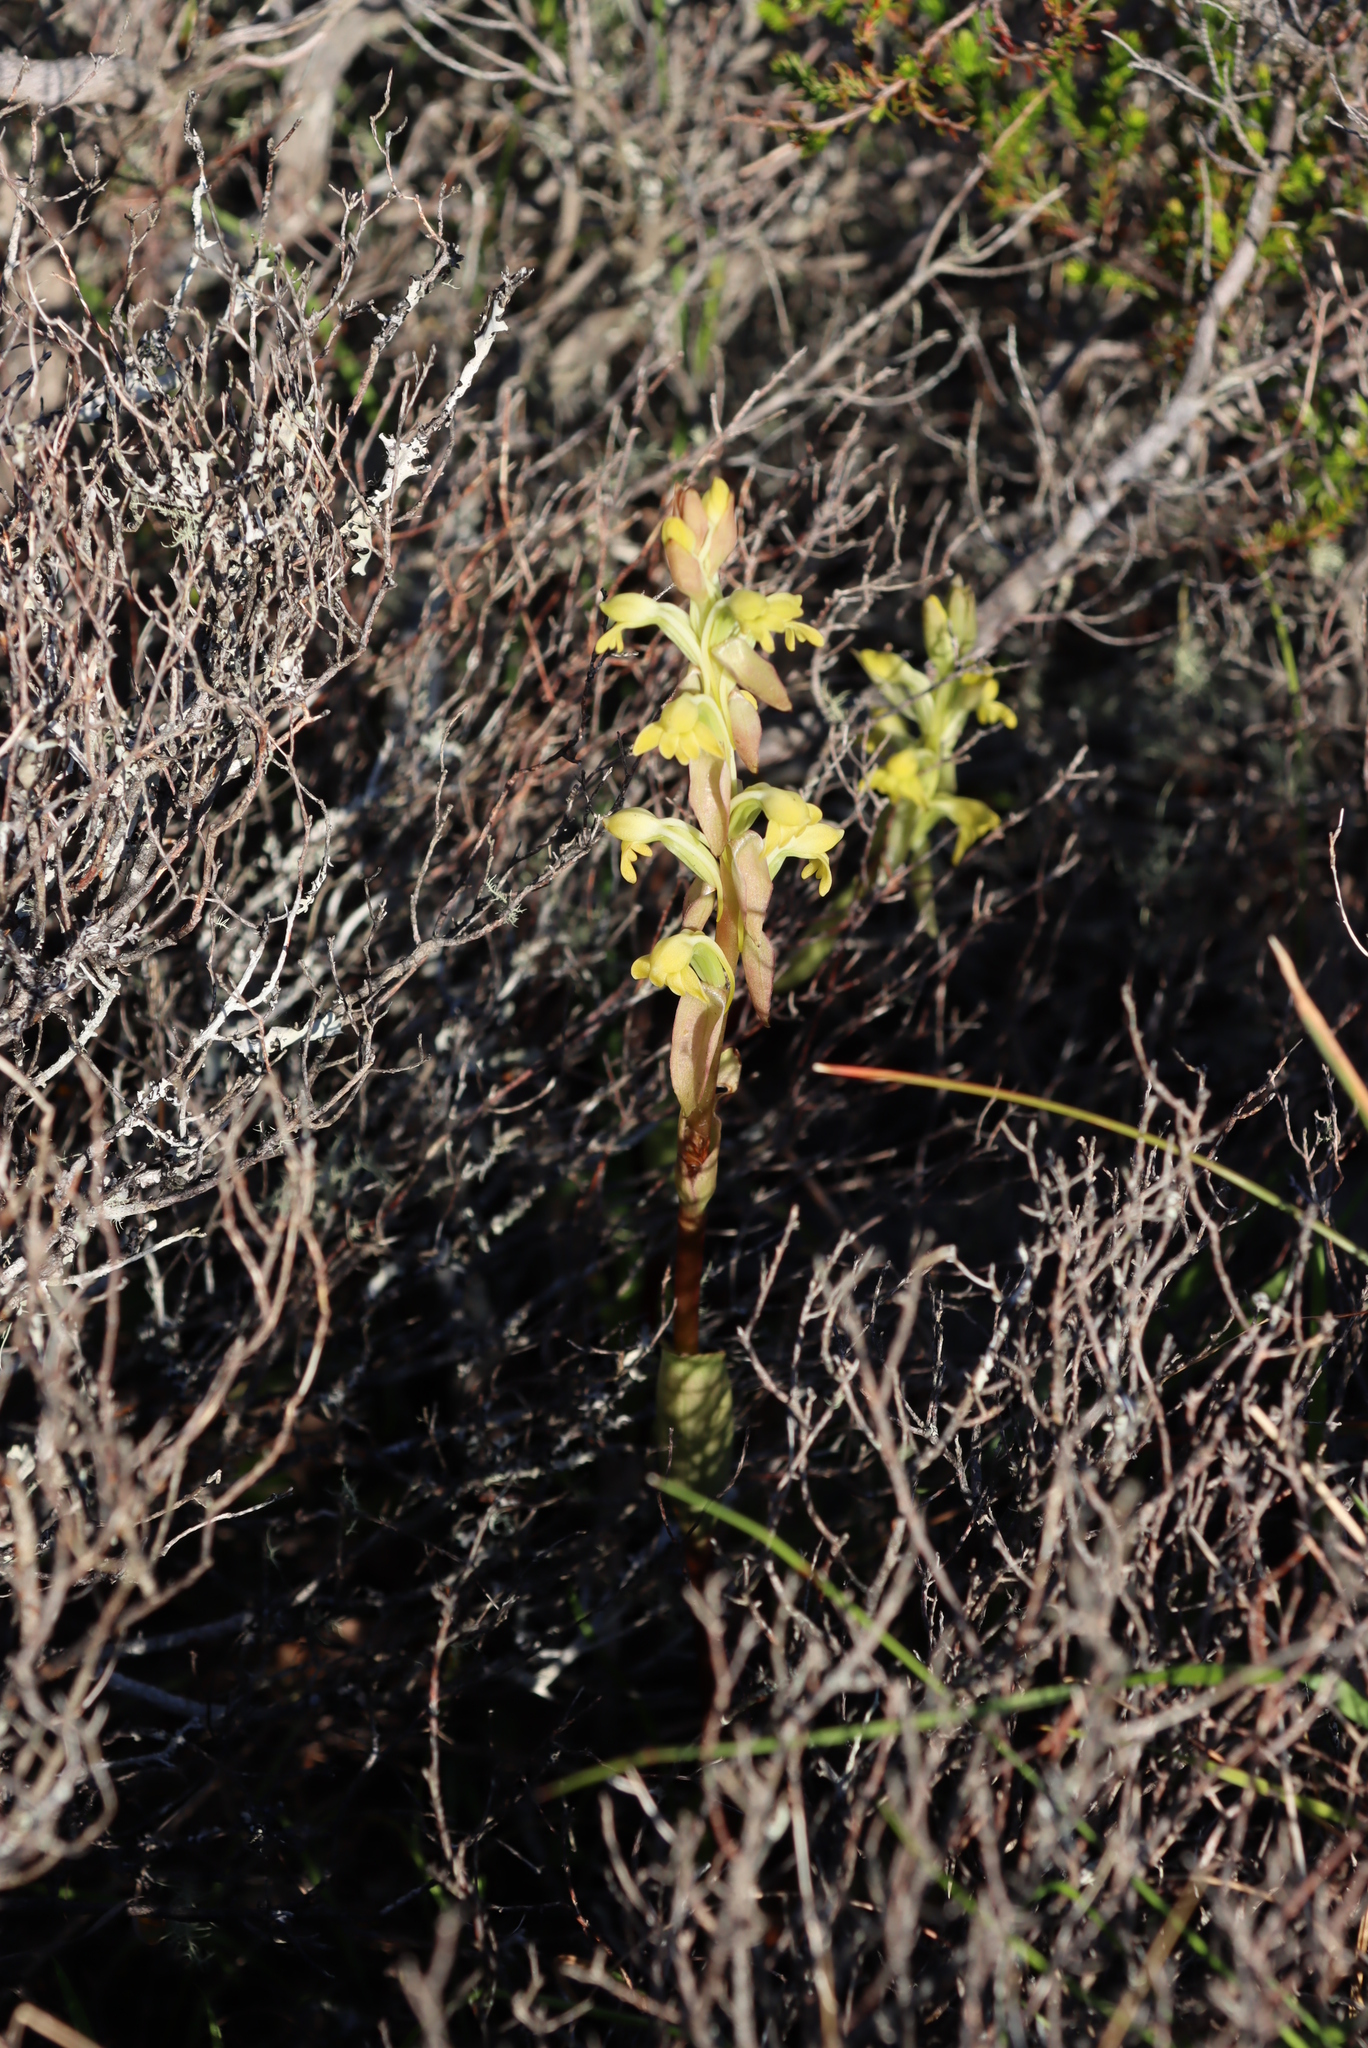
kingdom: Plantae
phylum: Tracheophyta
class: Liliopsida
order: Asparagales
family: Orchidaceae
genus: Satyrium
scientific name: Satyrium bicorne
